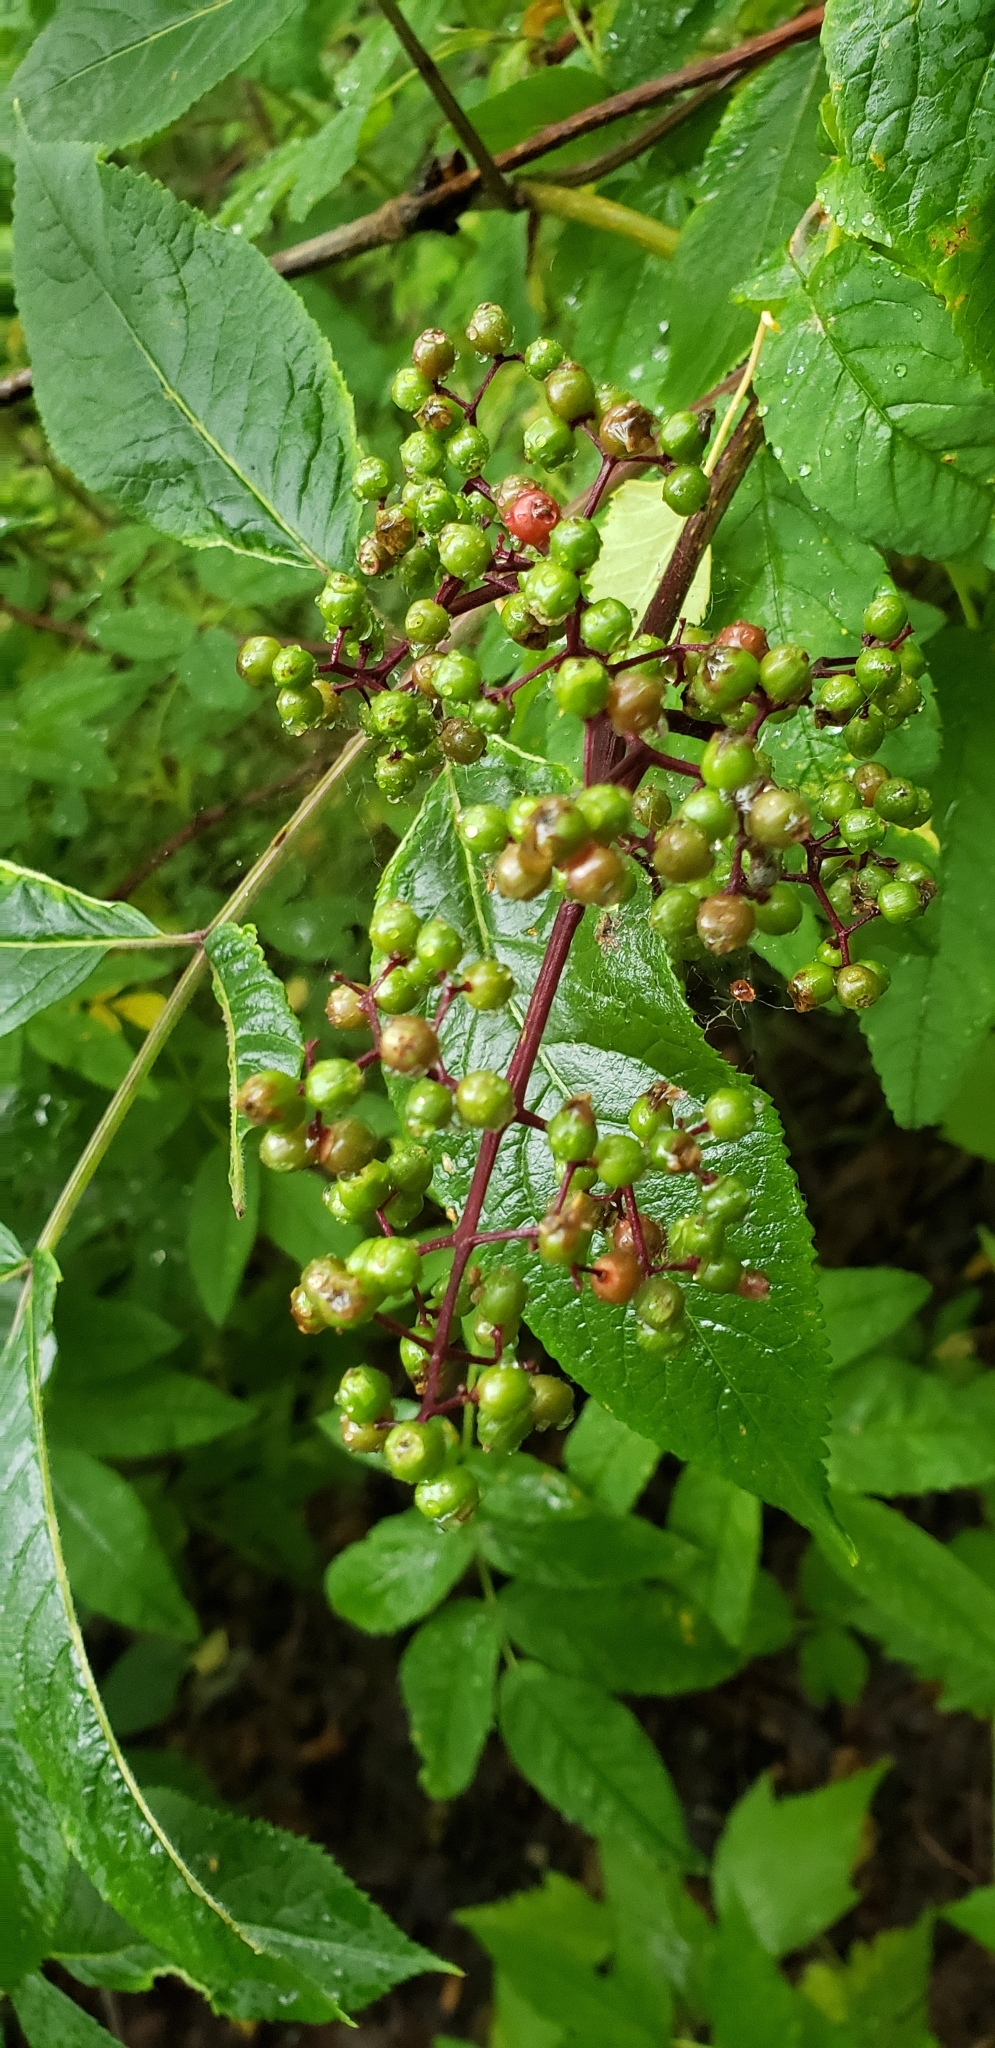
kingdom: Plantae
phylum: Tracheophyta
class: Magnoliopsida
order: Dipsacales
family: Viburnaceae
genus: Sambucus
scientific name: Sambucus racemosa
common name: Red-berried elder
